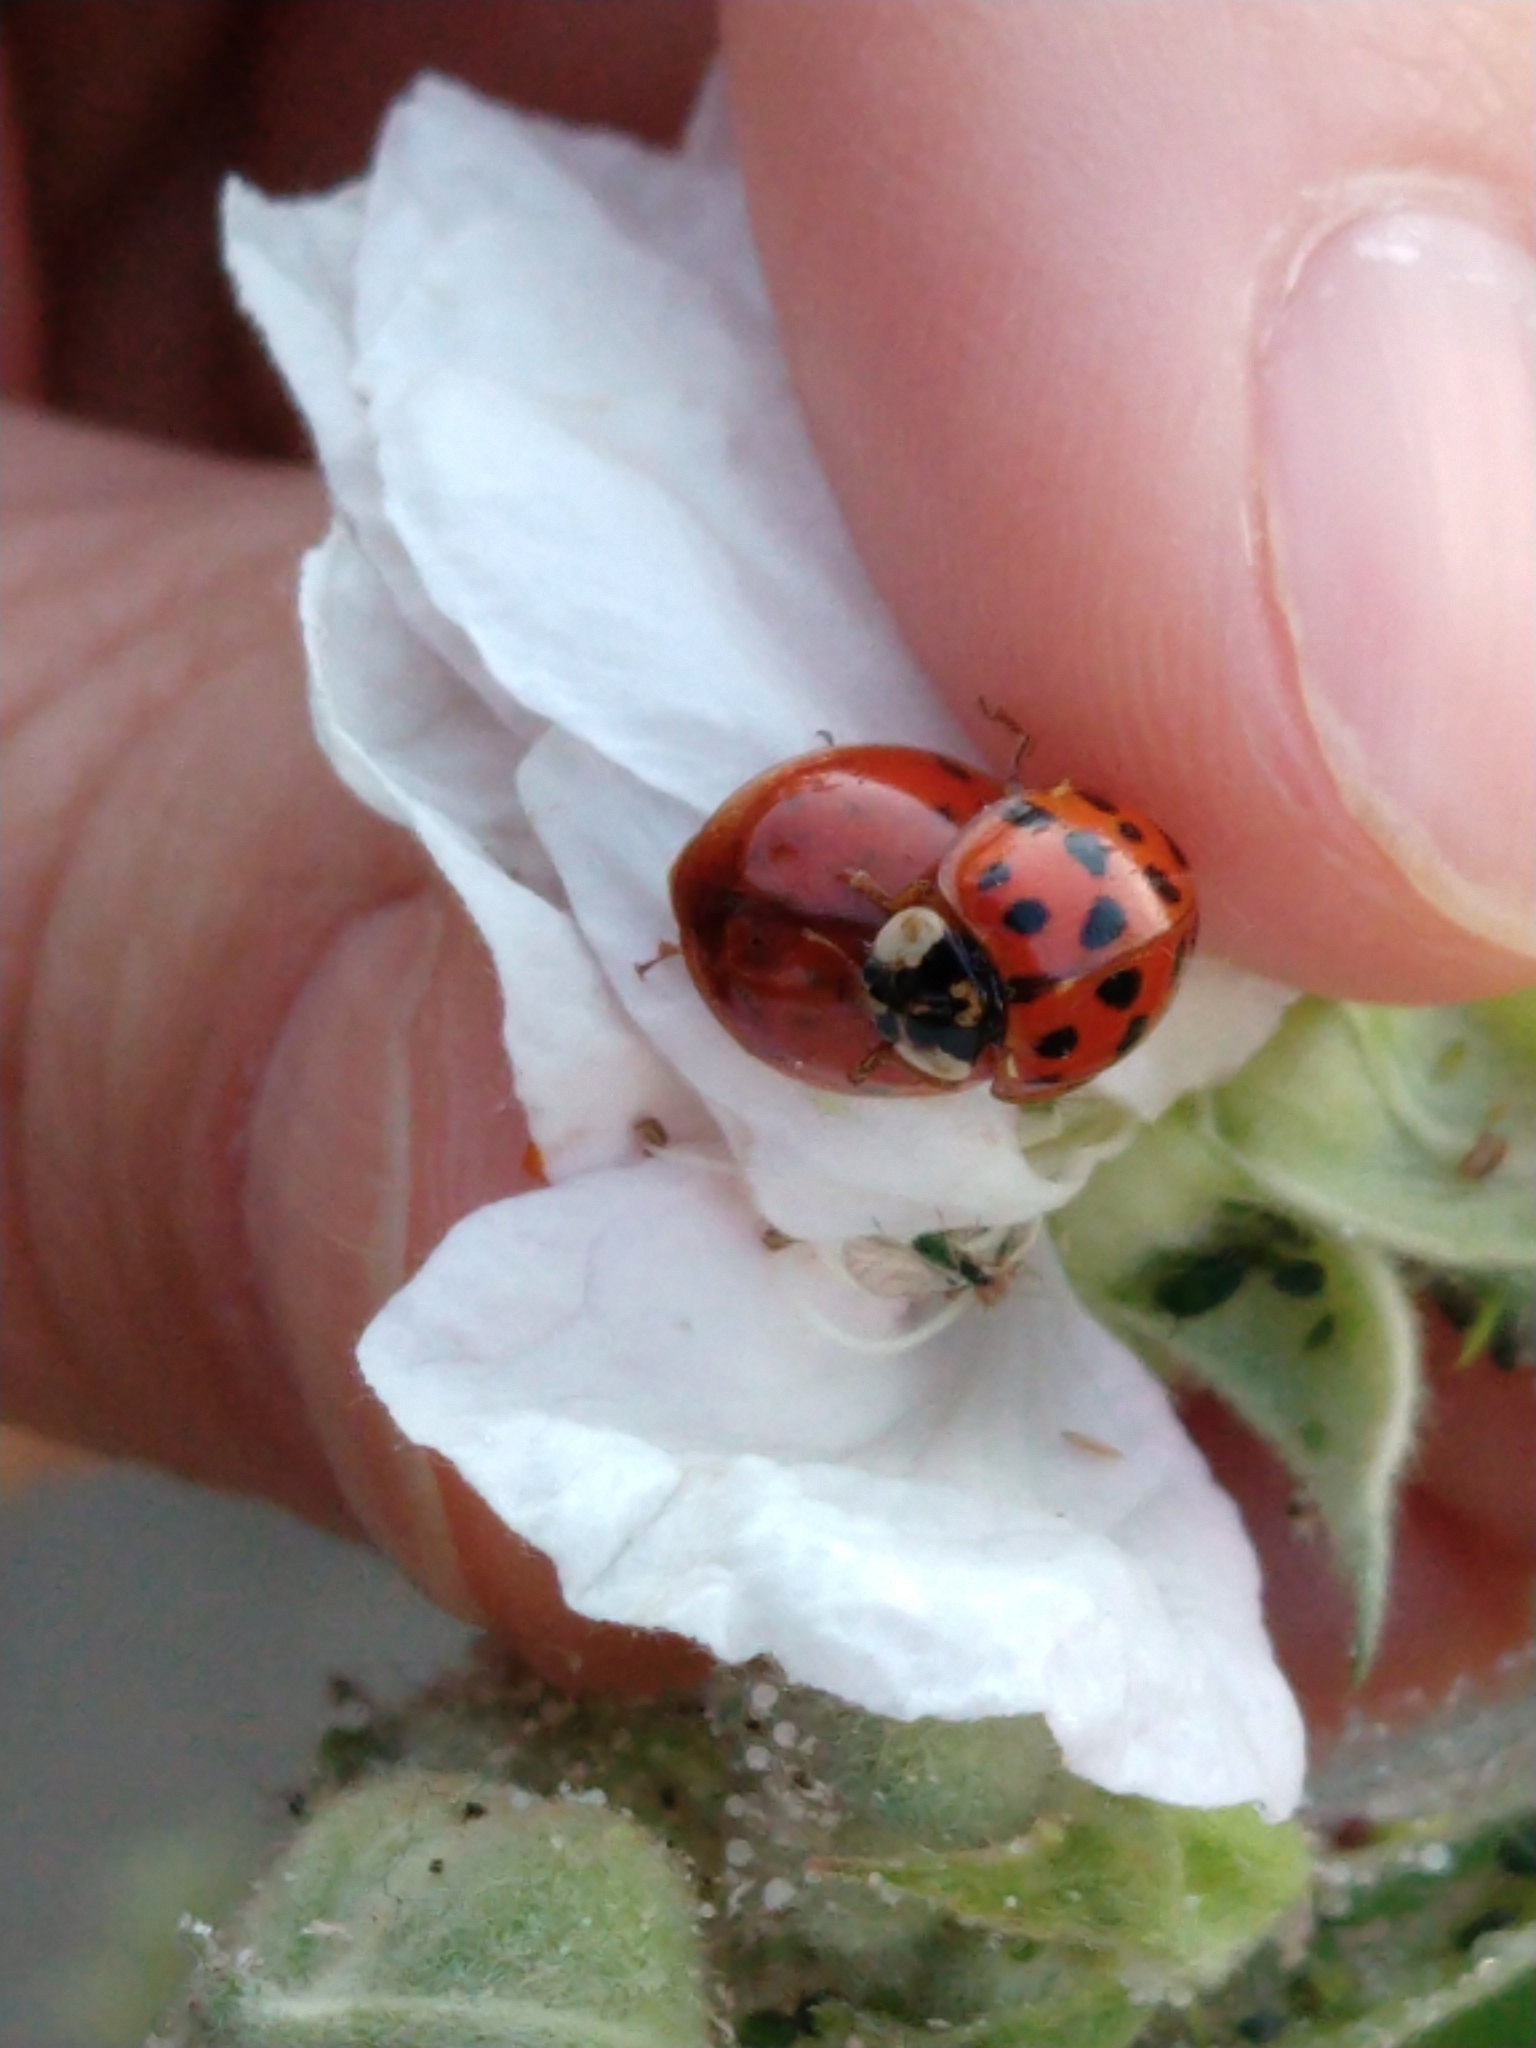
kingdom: Animalia
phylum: Arthropoda
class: Insecta
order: Coleoptera
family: Coccinellidae
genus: Harmonia
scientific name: Harmonia axyridis
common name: Harlequin ladybird
